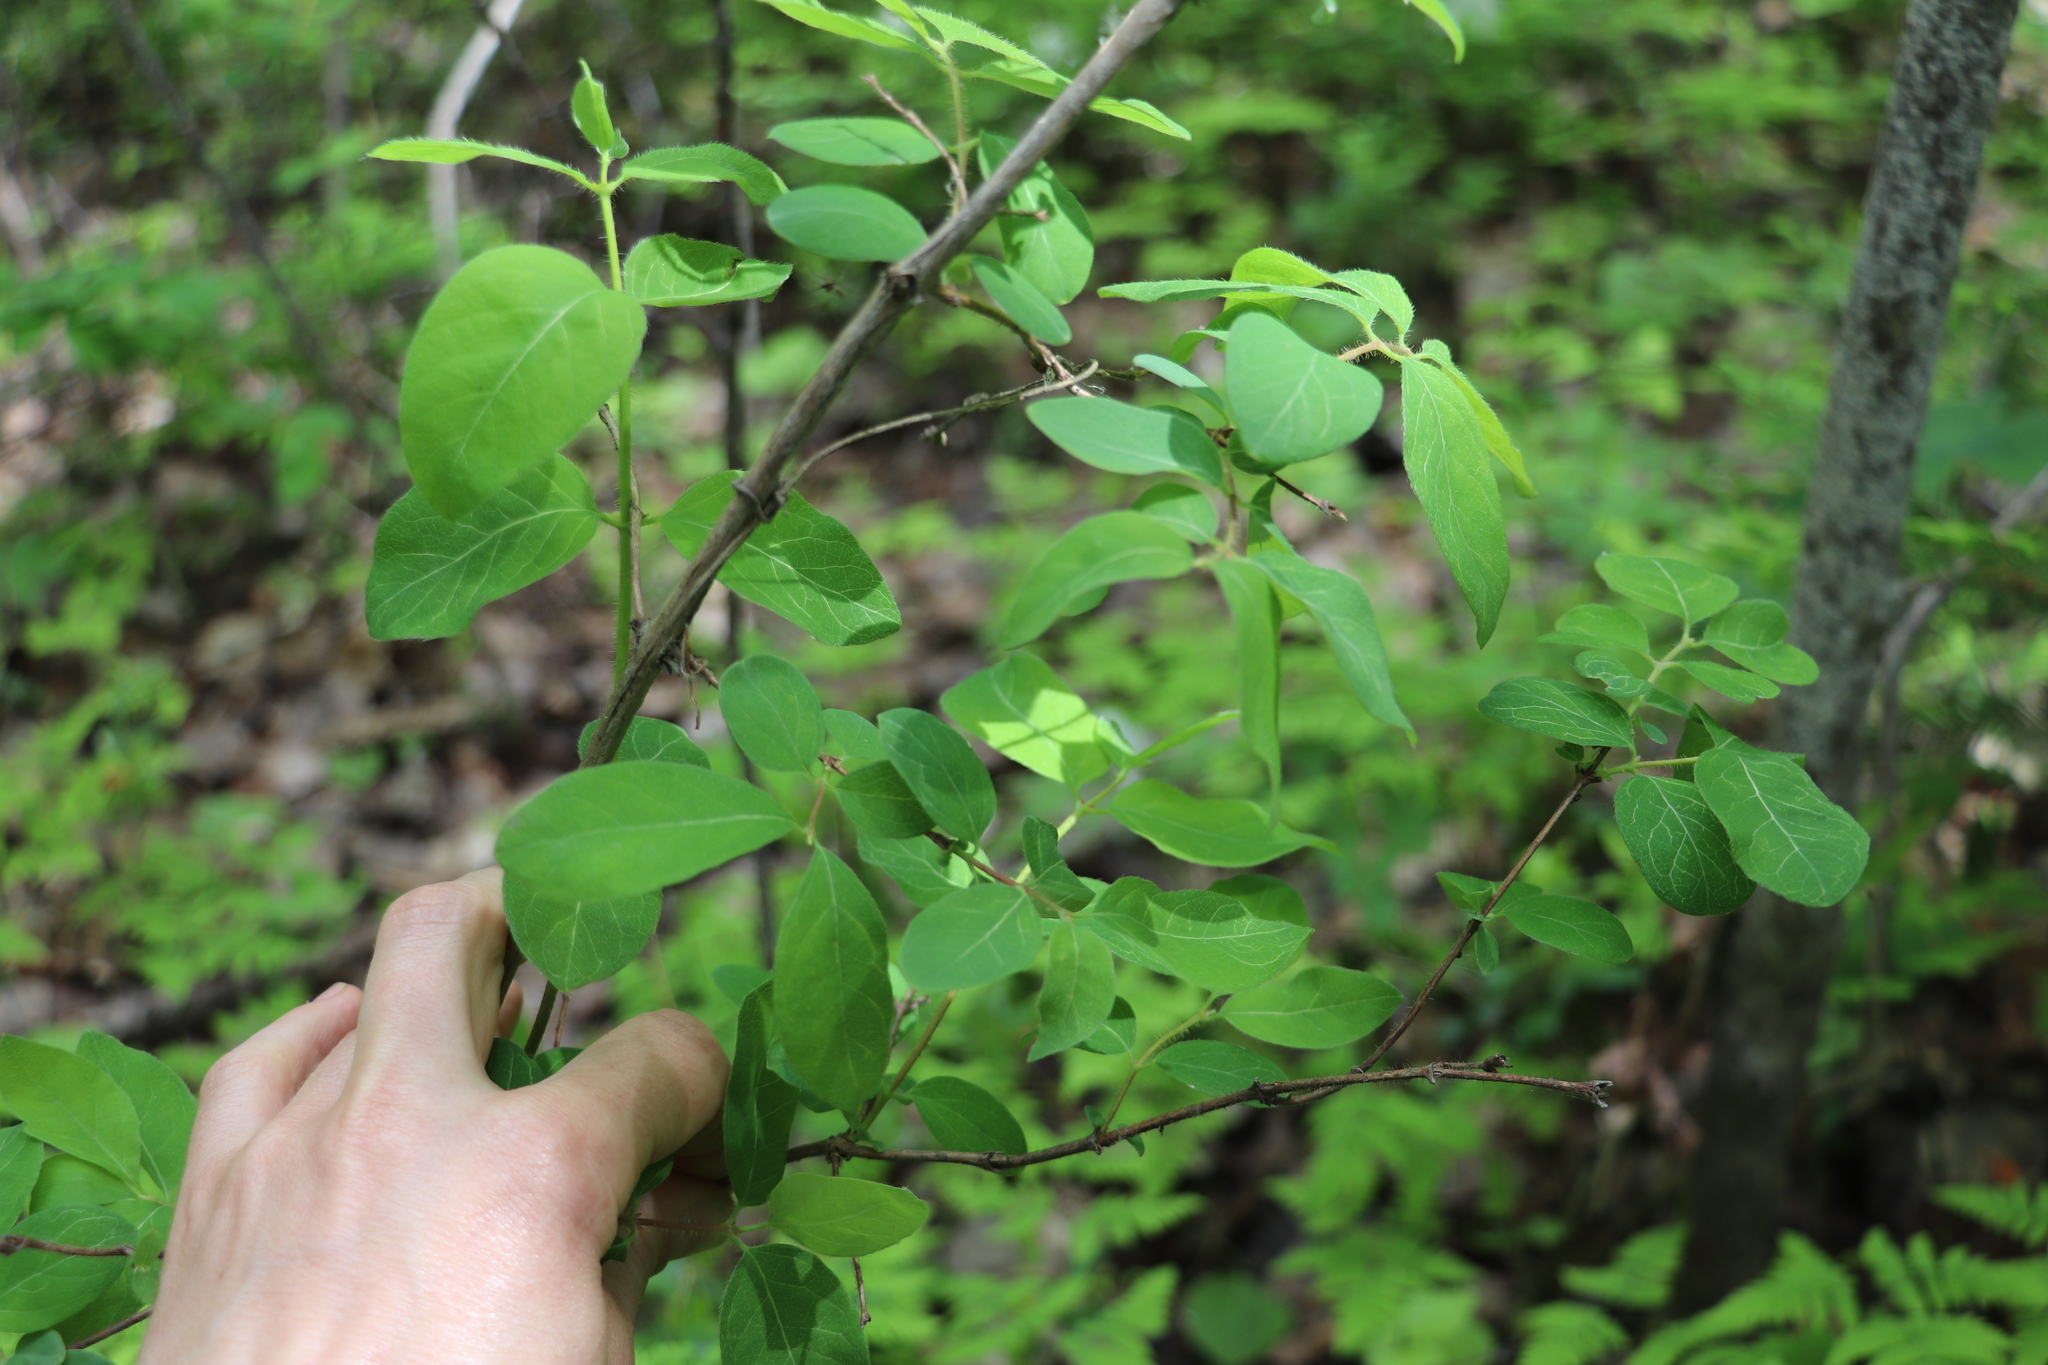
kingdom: Plantae
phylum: Tracheophyta
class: Magnoliopsida
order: Dipsacales
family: Caprifoliaceae
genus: Lonicera
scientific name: Lonicera caerulea
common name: Blue honeysuckle
